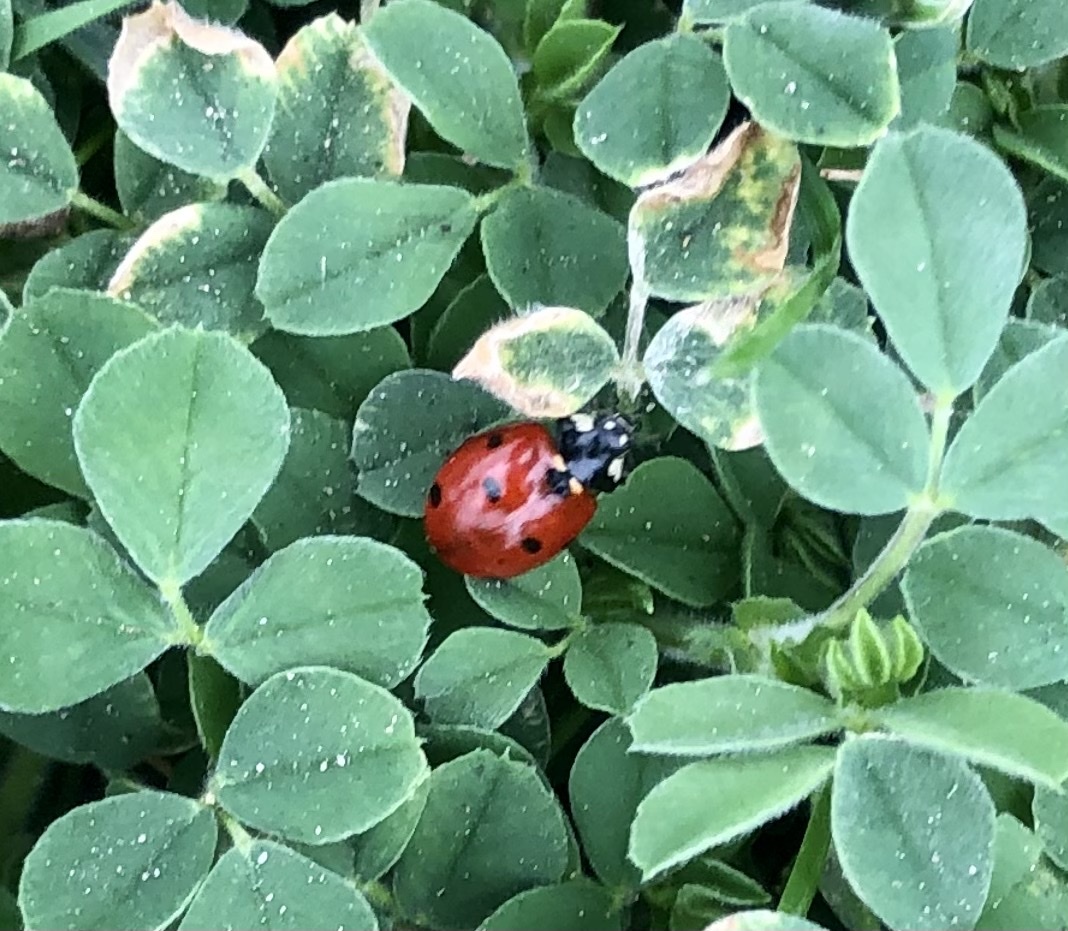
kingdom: Animalia
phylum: Arthropoda
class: Insecta
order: Coleoptera
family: Coccinellidae
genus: Coccinella
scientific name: Coccinella septempunctata
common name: Sevenspotted lady beetle
